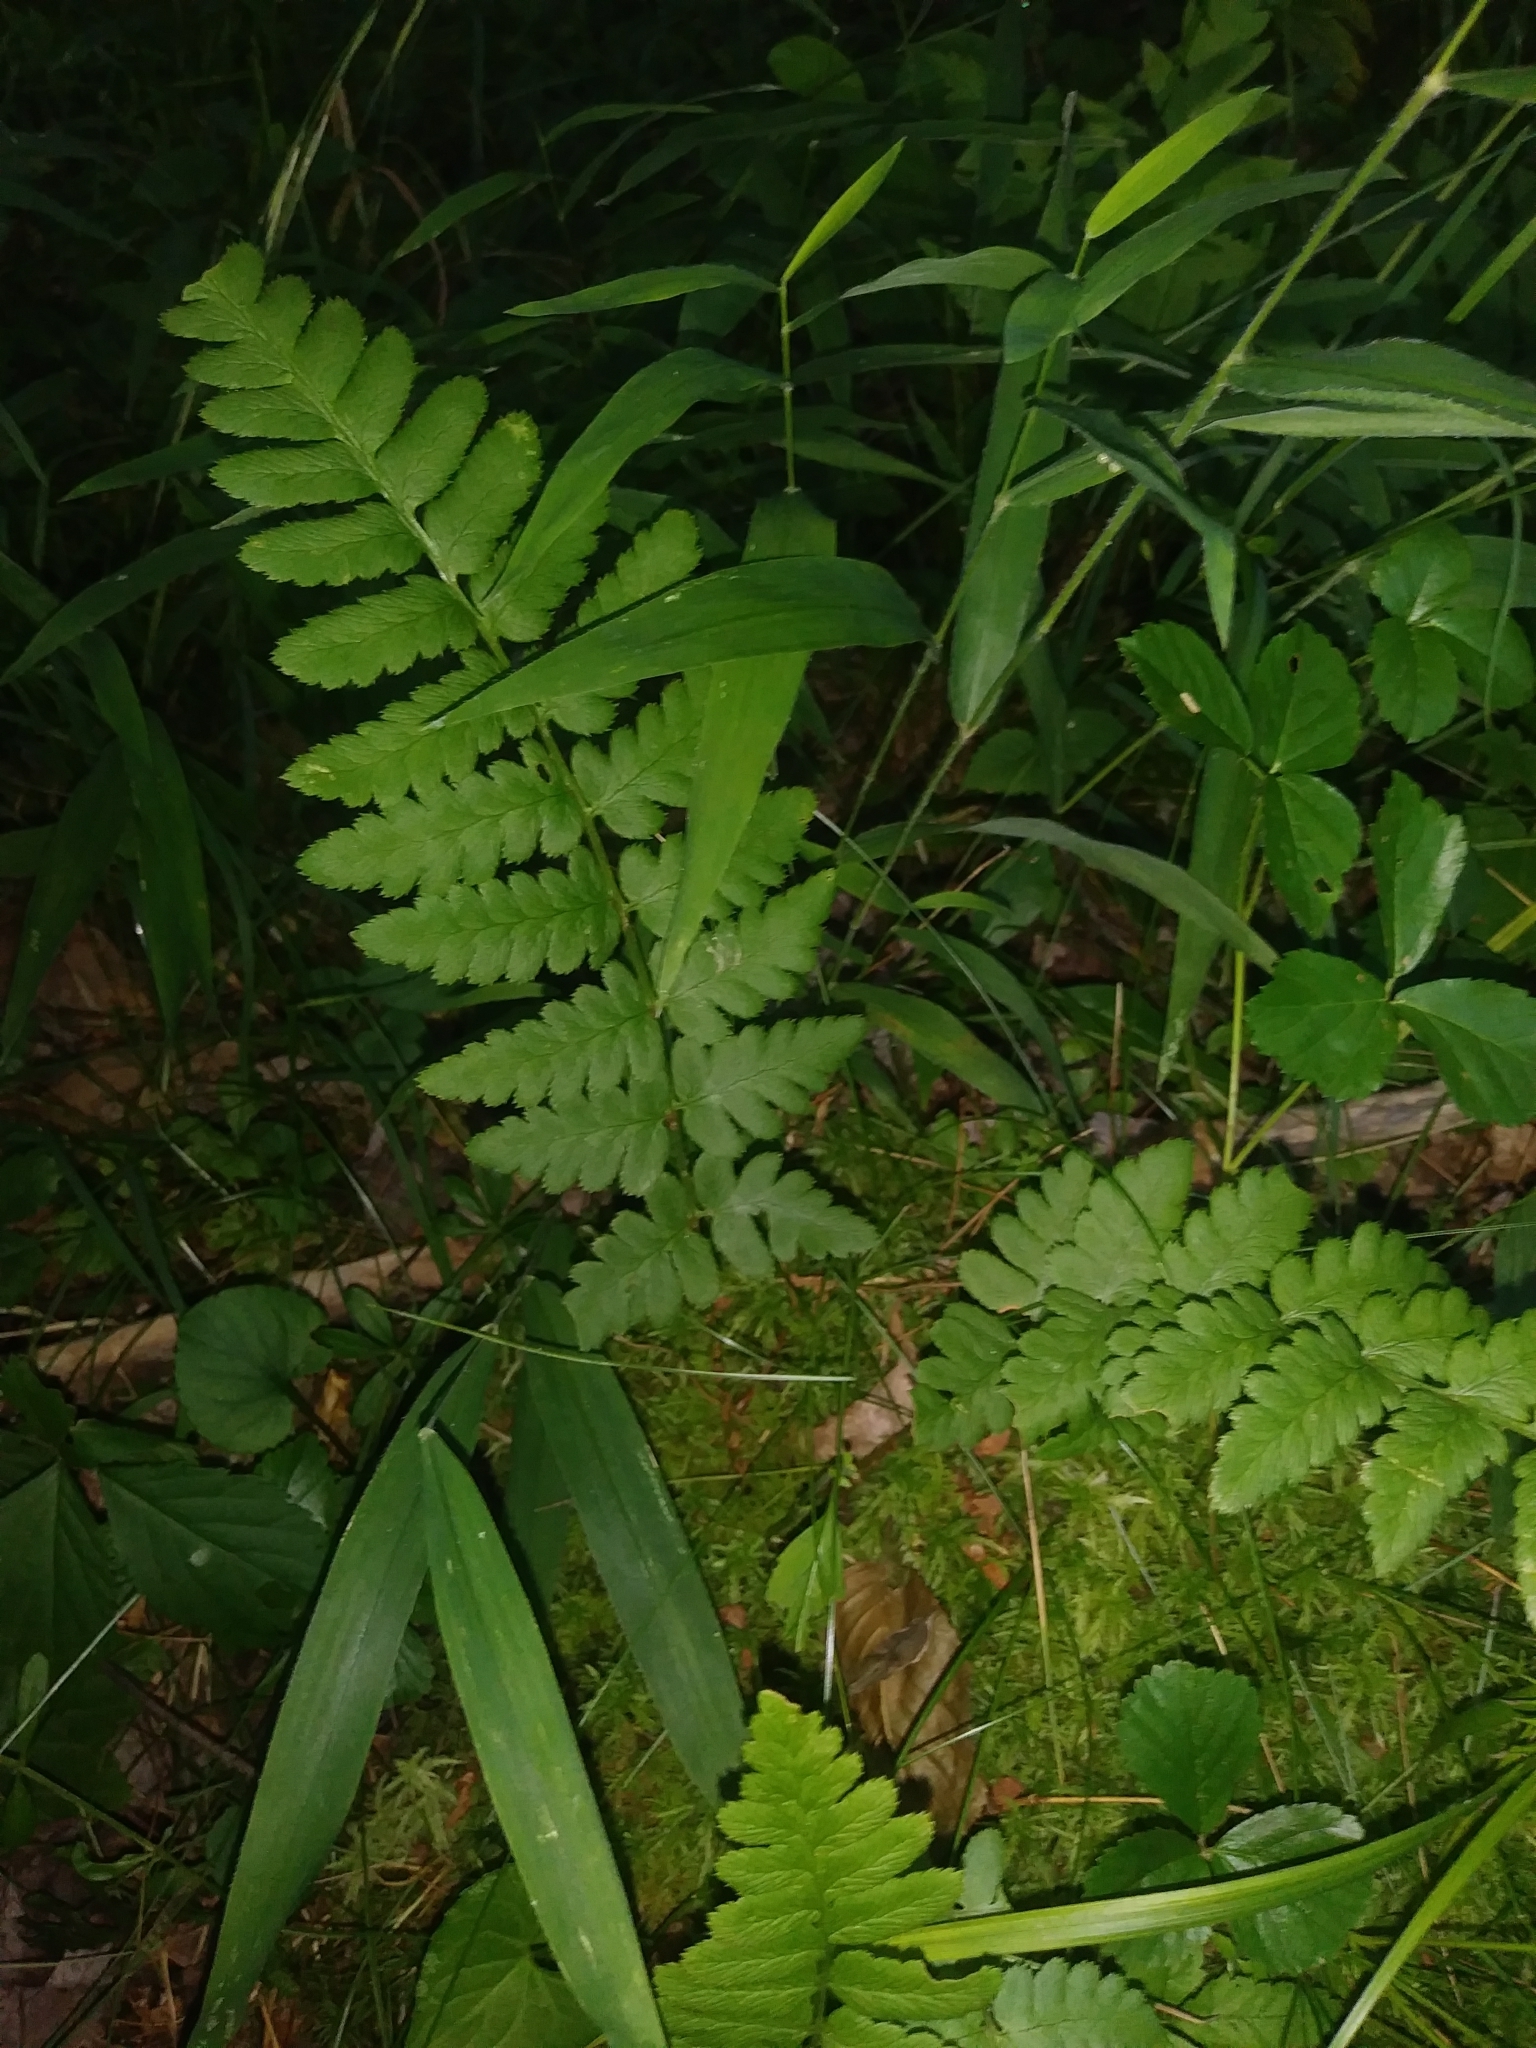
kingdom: Plantae
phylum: Tracheophyta
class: Polypodiopsida
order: Polypodiales
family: Dryopteridaceae
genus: Dryopteris
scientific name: Dryopteris cristata
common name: Crested wood fern
